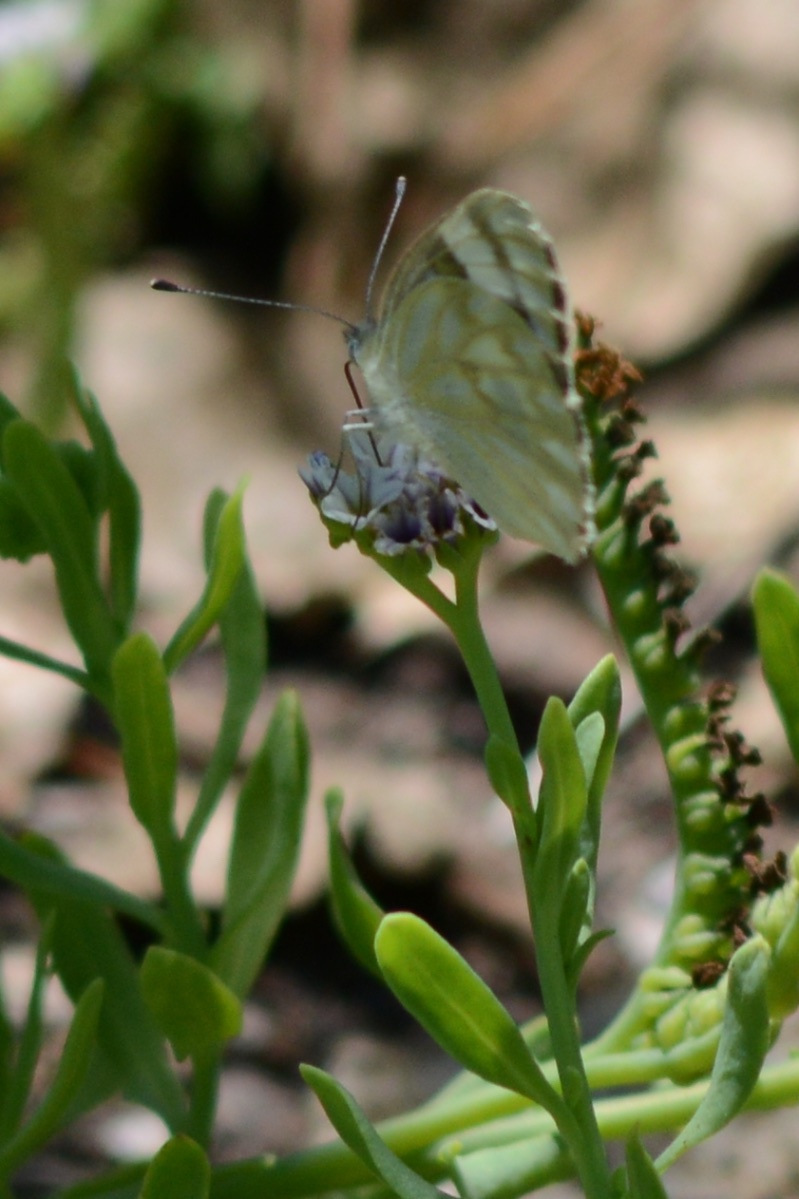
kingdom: Animalia
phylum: Arthropoda
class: Insecta
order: Lepidoptera
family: Pieridae
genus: Pontia
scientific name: Pontia protodice
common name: Checkered white
